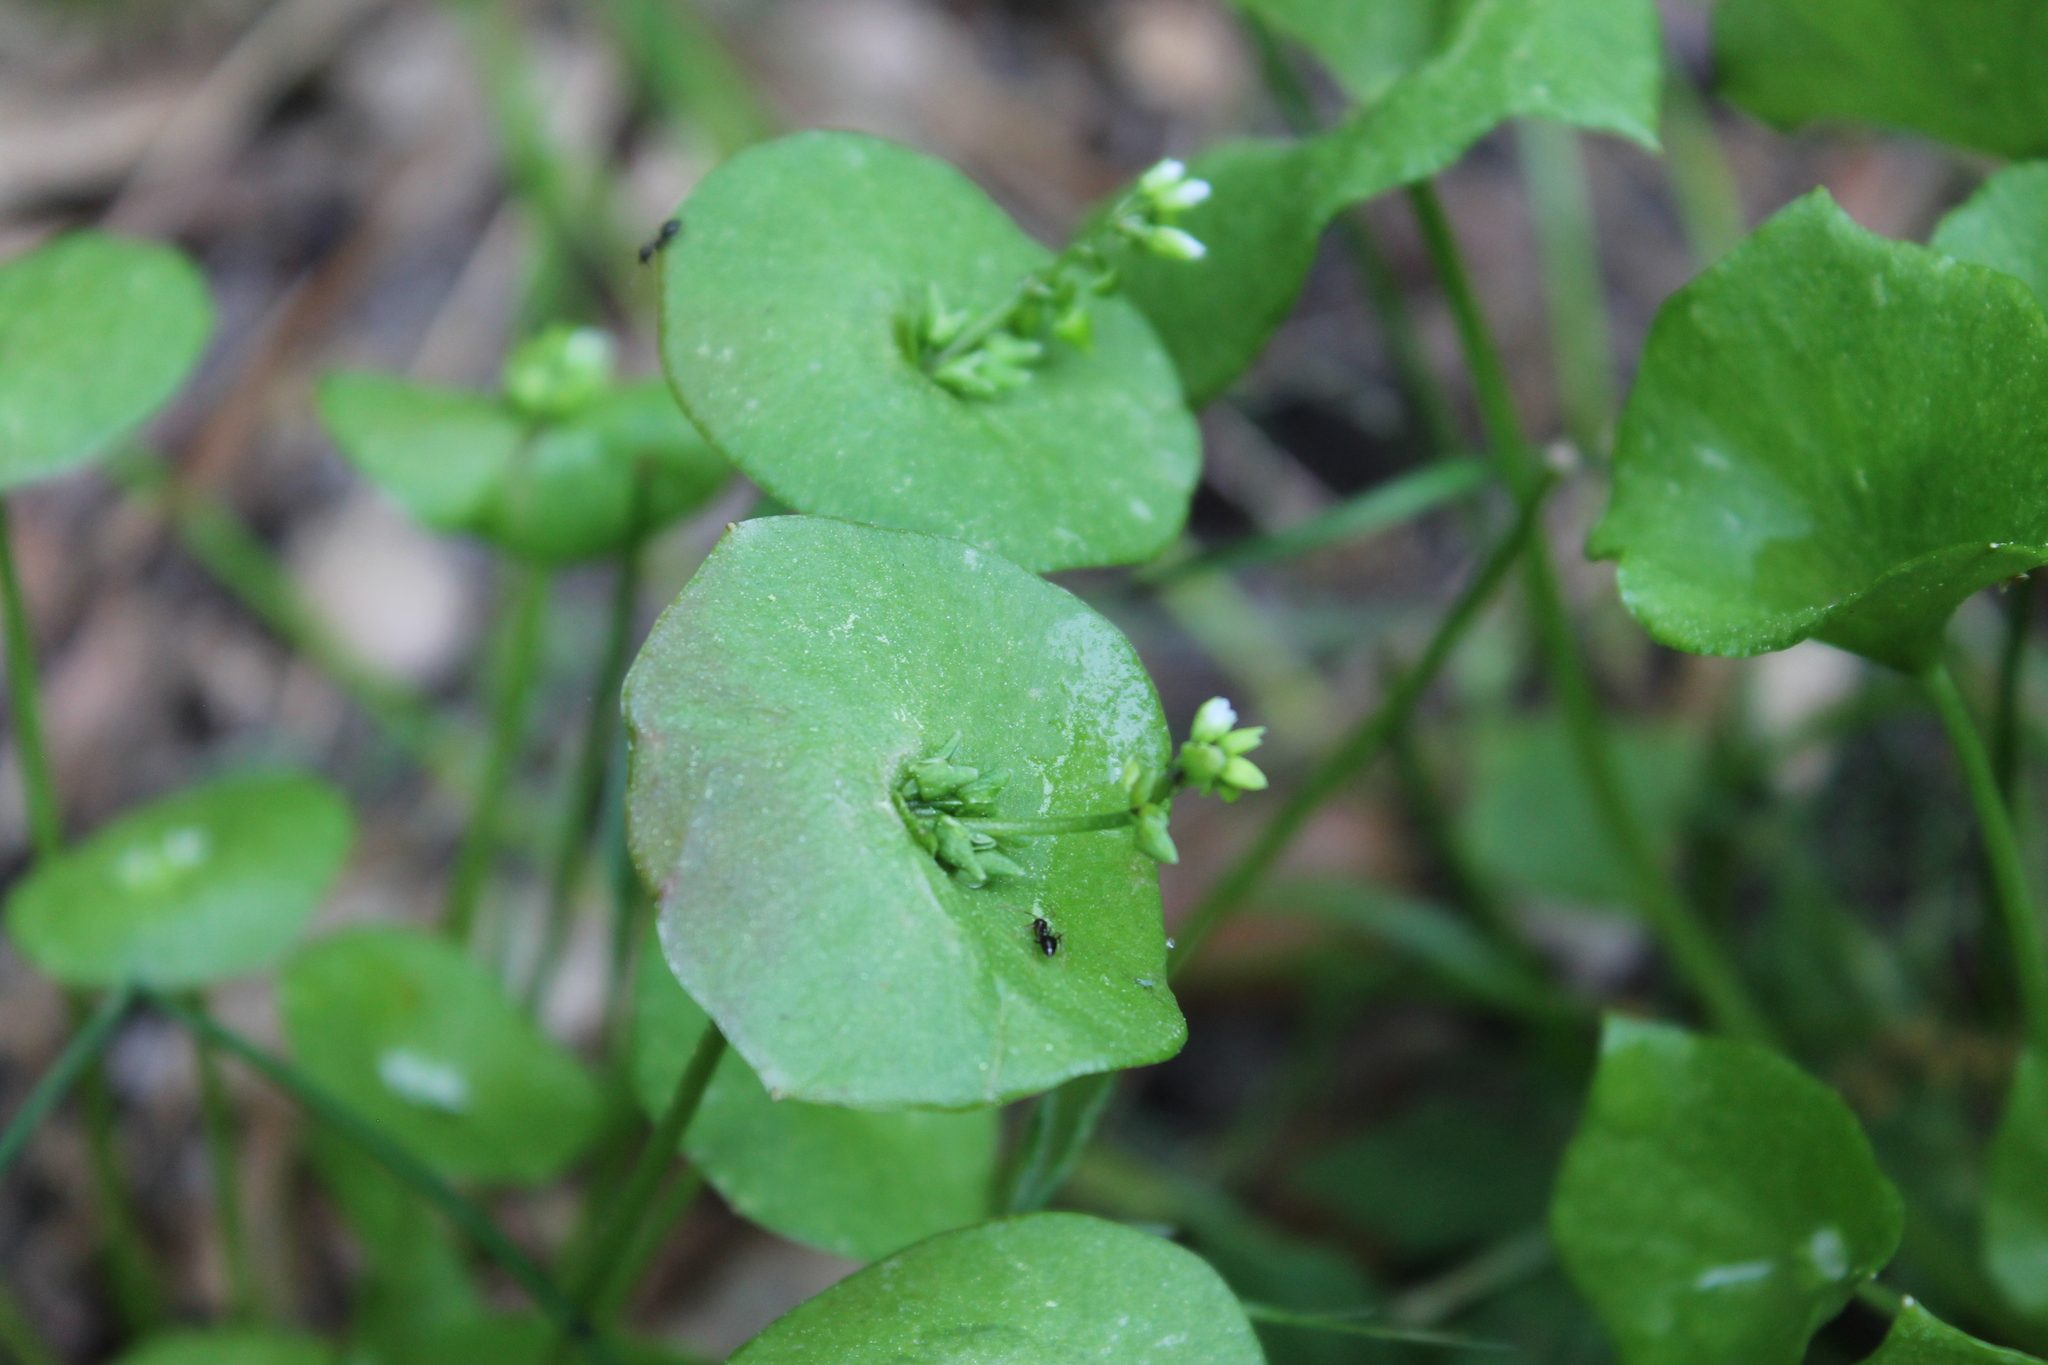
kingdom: Plantae
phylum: Tracheophyta
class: Magnoliopsida
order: Caryophyllales
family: Montiaceae
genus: Claytonia
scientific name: Claytonia perfoliata
